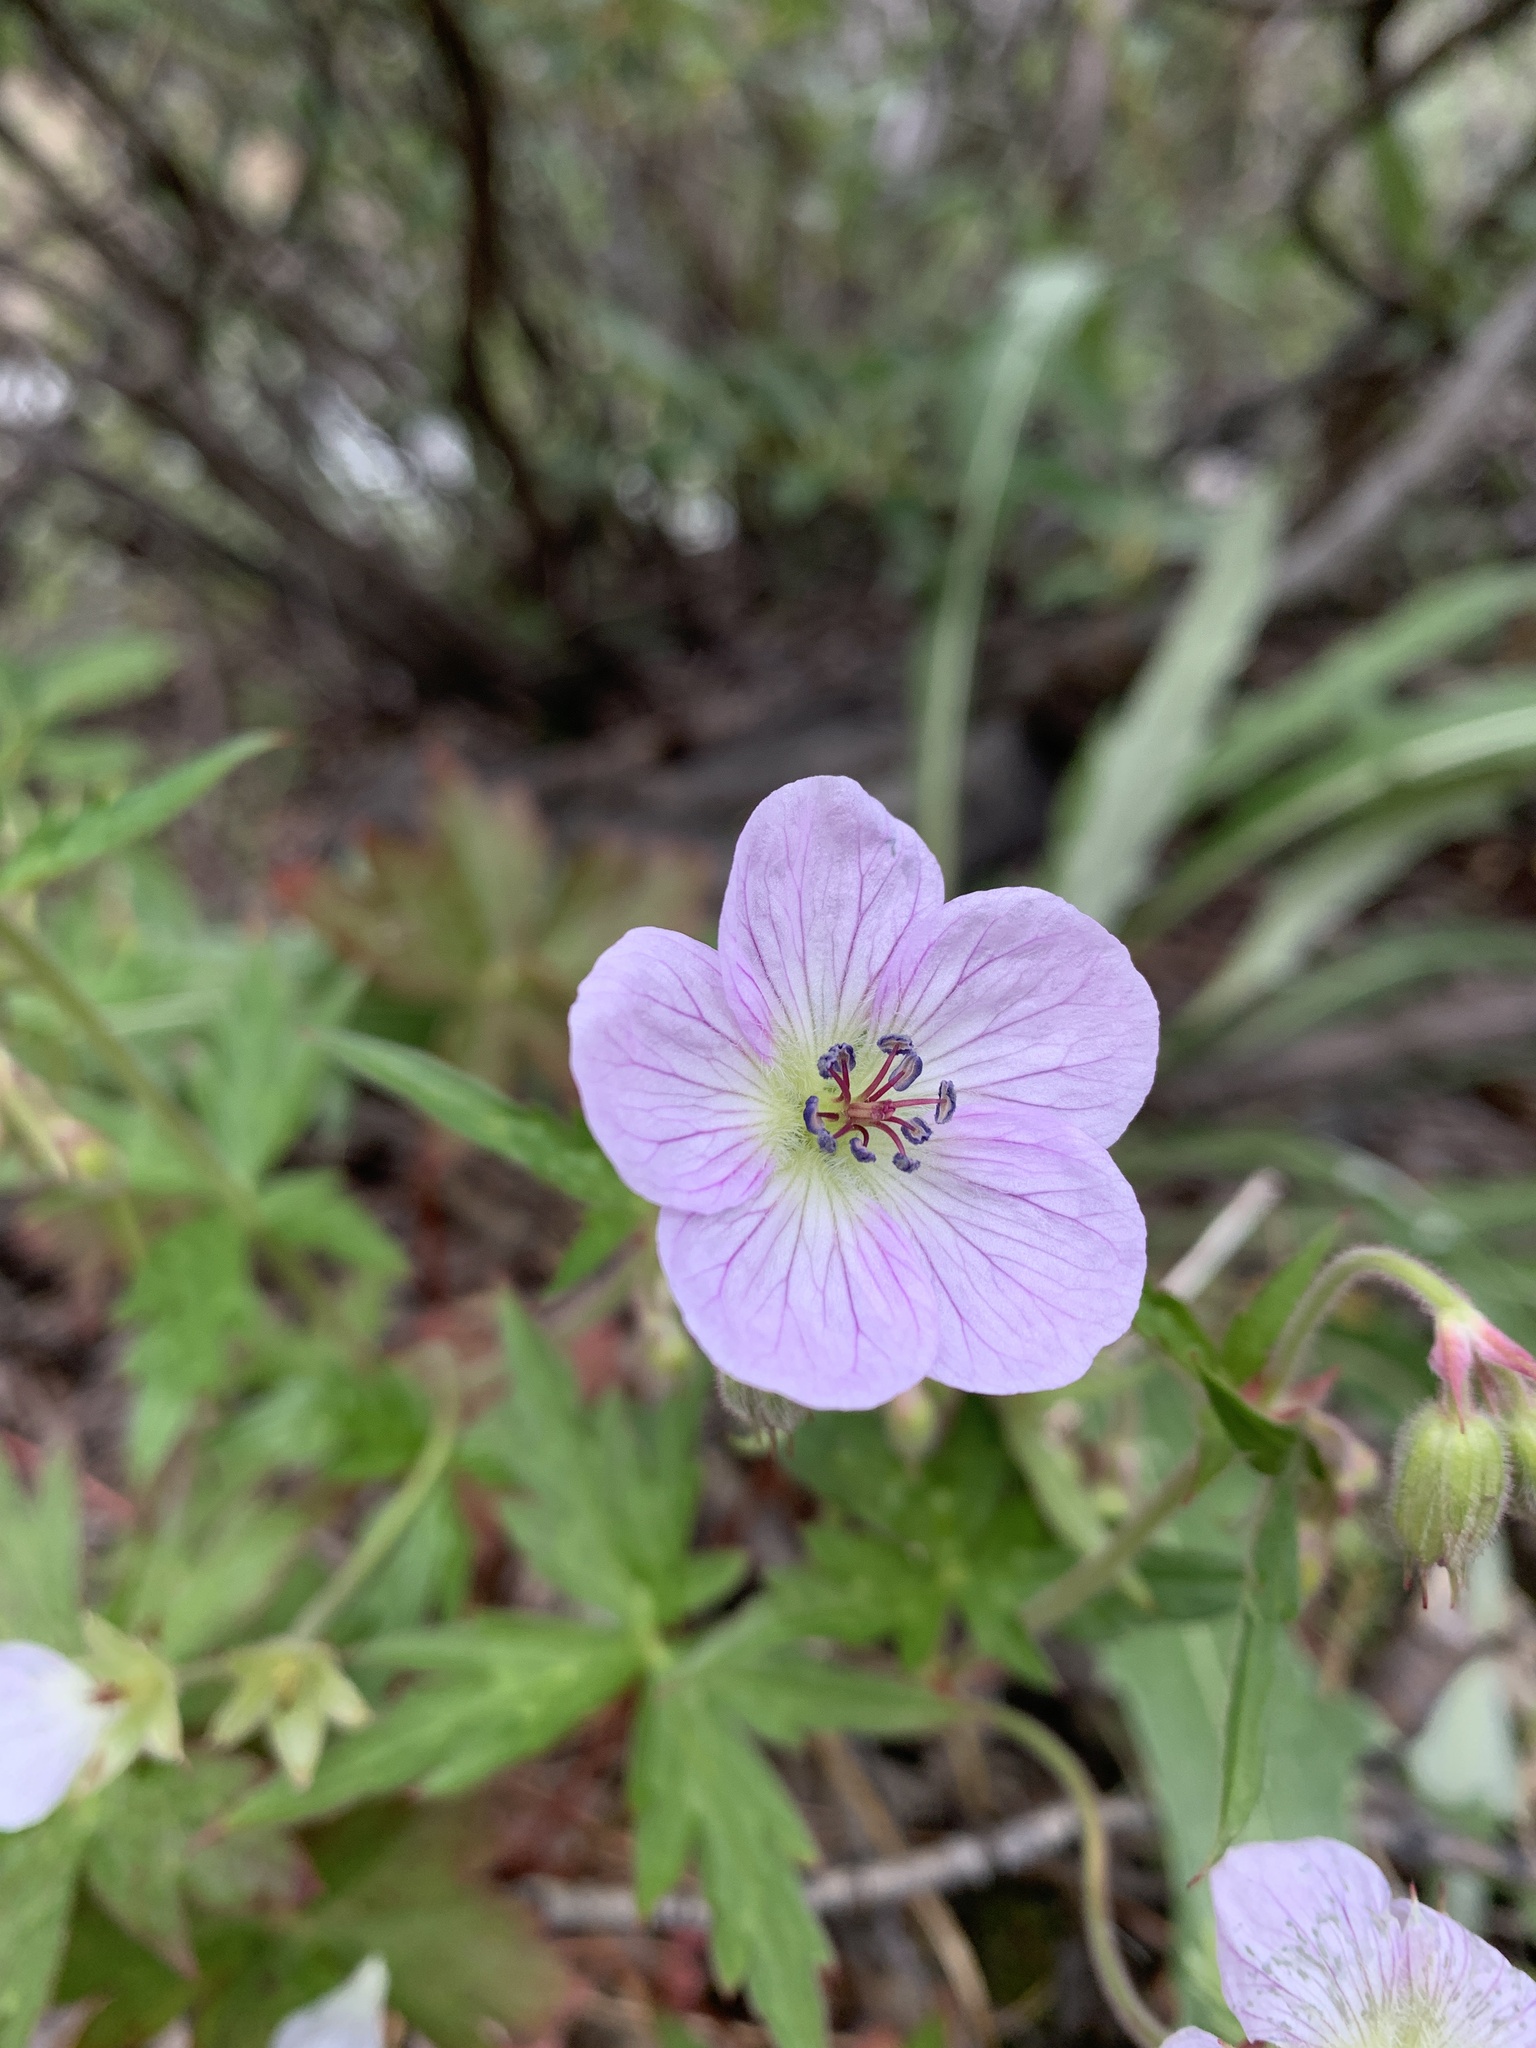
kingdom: Plantae
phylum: Tracheophyta
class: Magnoliopsida
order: Geraniales
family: Geraniaceae
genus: Geranium
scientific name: Geranium richardsonii
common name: Richardson's crane's-bill
